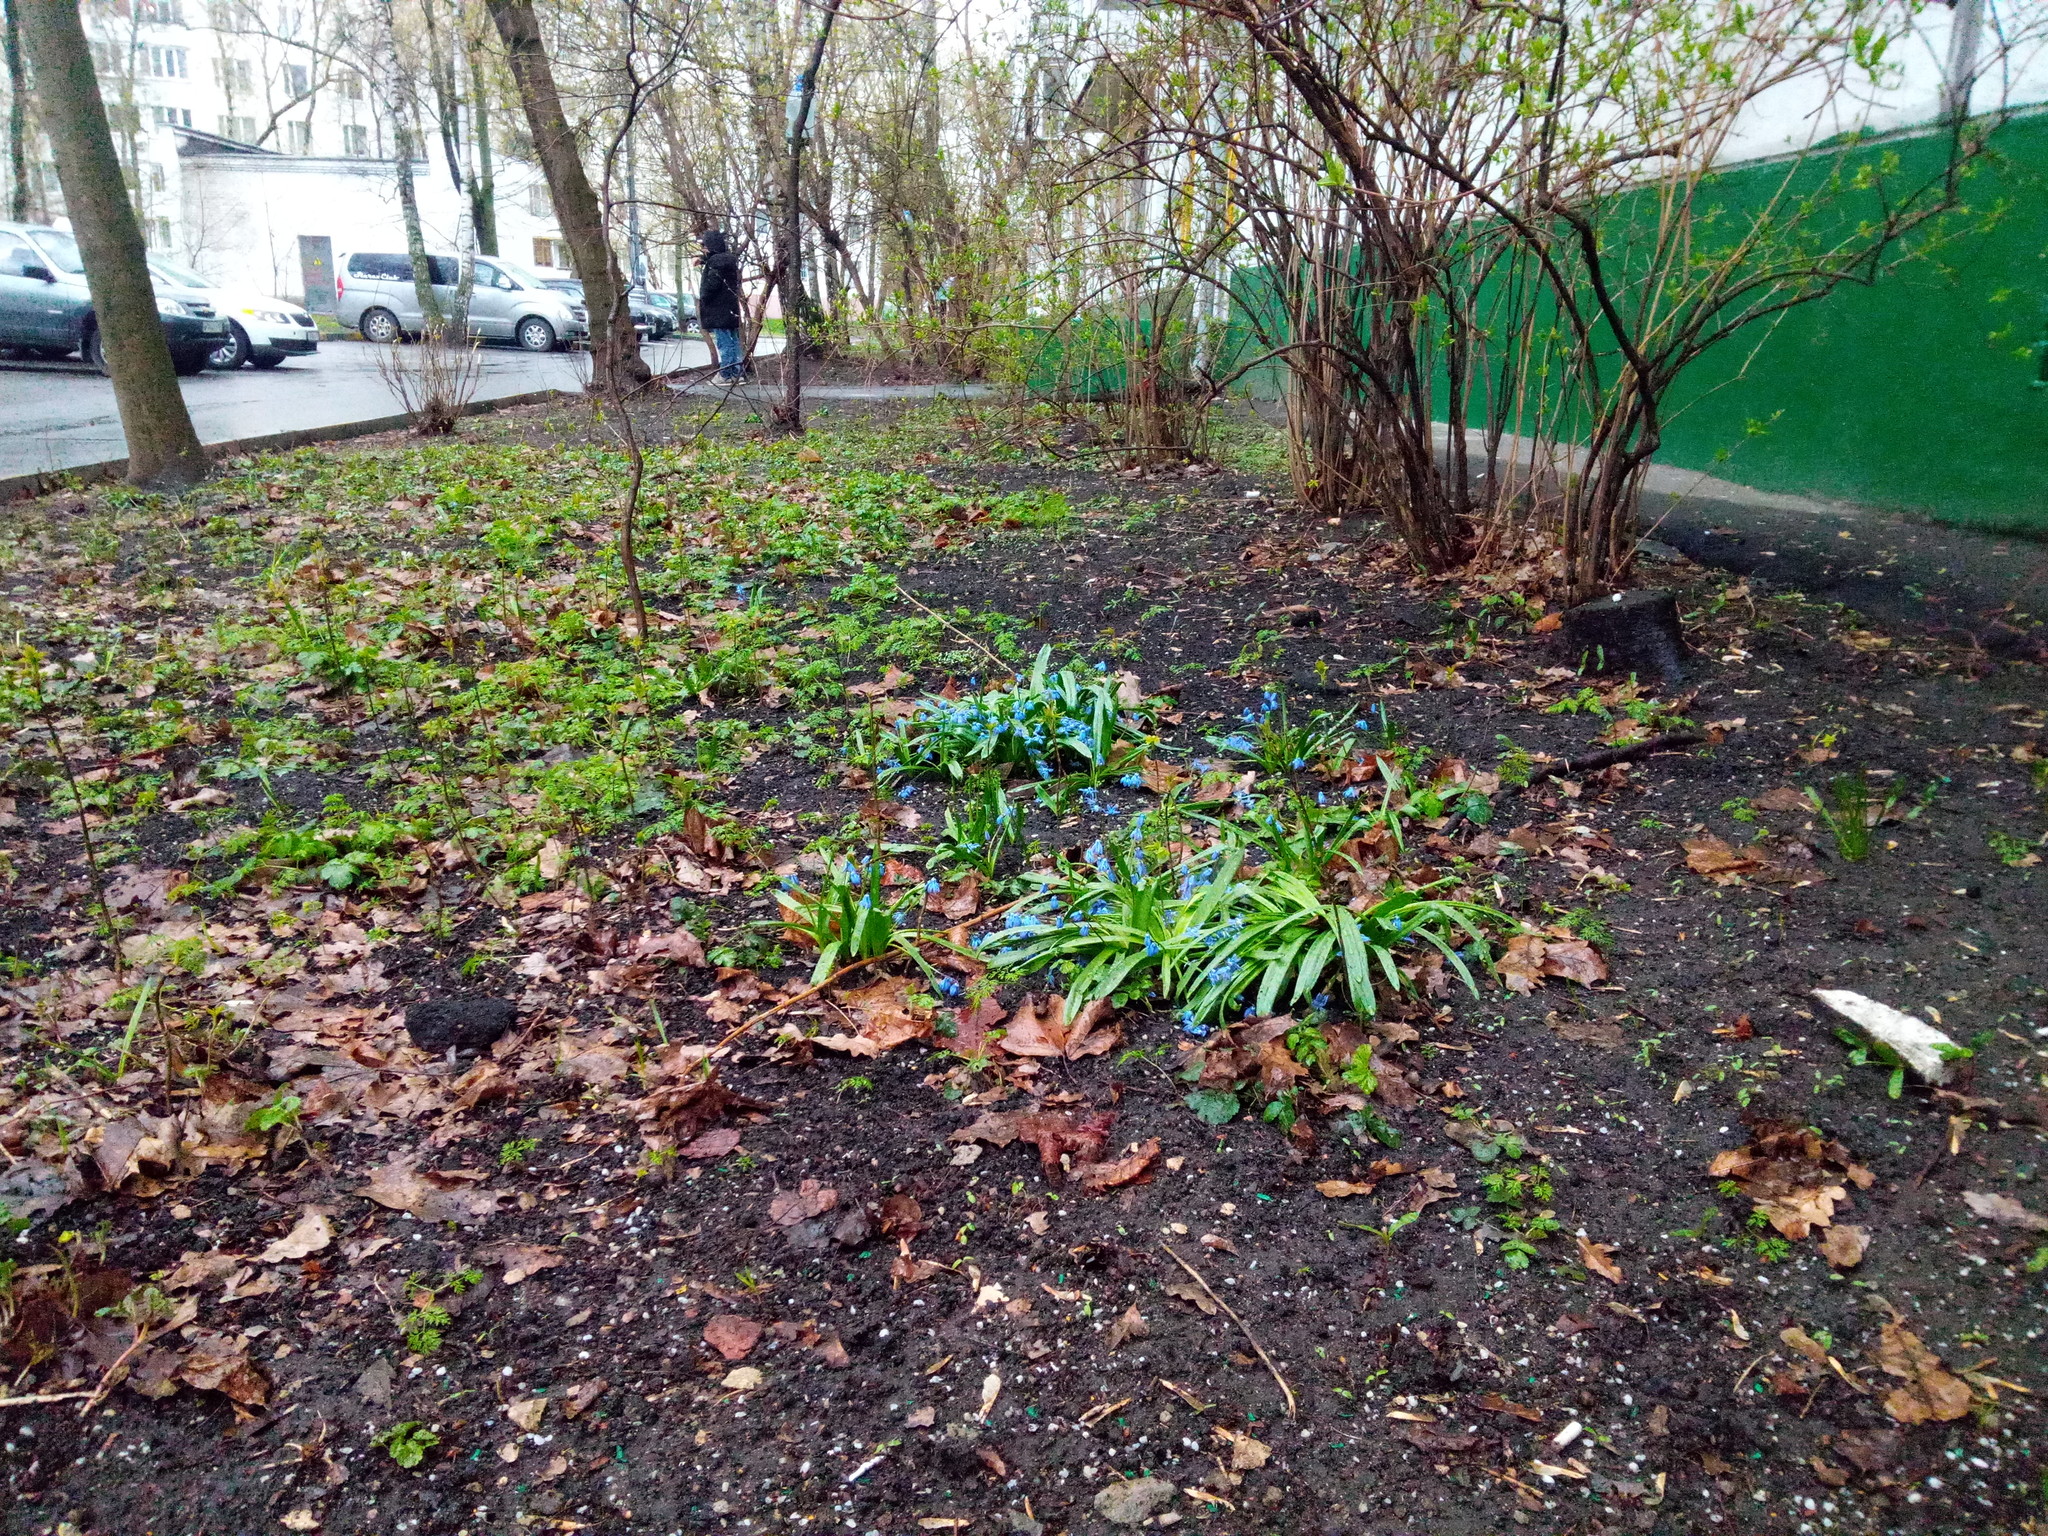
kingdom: Plantae
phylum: Tracheophyta
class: Liliopsida
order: Asparagales
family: Asparagaceae
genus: Scilla
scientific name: Scilla siberica
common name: Siberian squill
